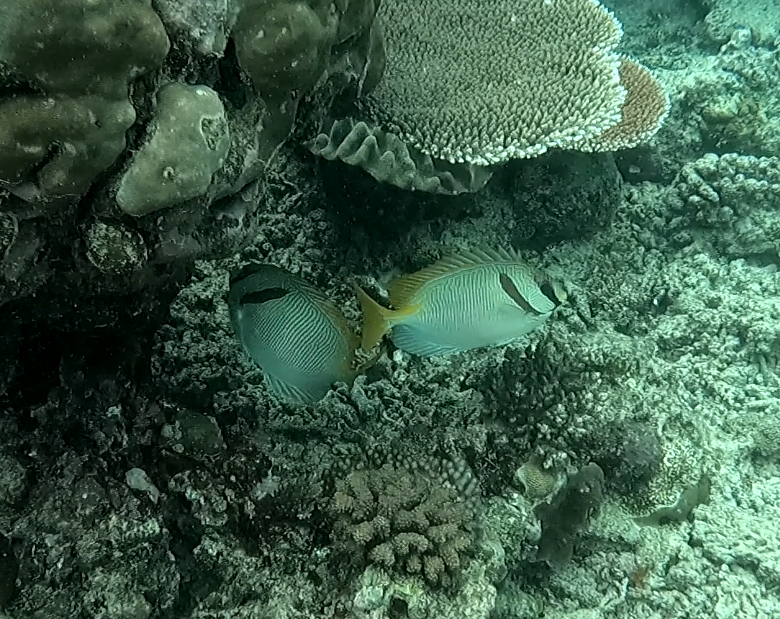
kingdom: Animalia
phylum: Chordata
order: Perciformes
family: Siganidae
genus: Siganus
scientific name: Siganus doliatus
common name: Barred spinefoot
